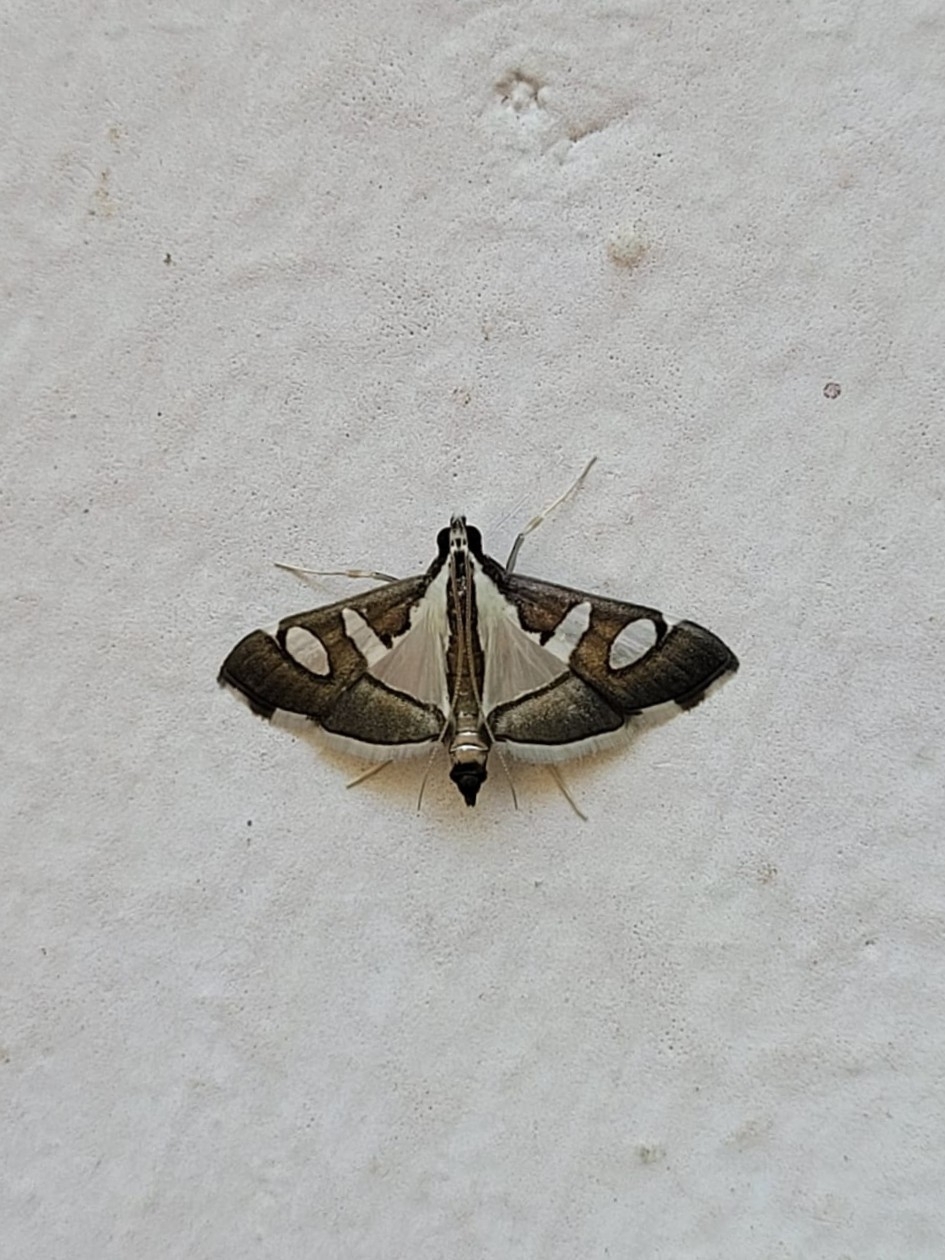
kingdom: Animalia
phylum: Arthropoda
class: Insecta
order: Lepidoptera
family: Crambidae
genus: Glyphodes
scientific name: Glyphodes bicolor
